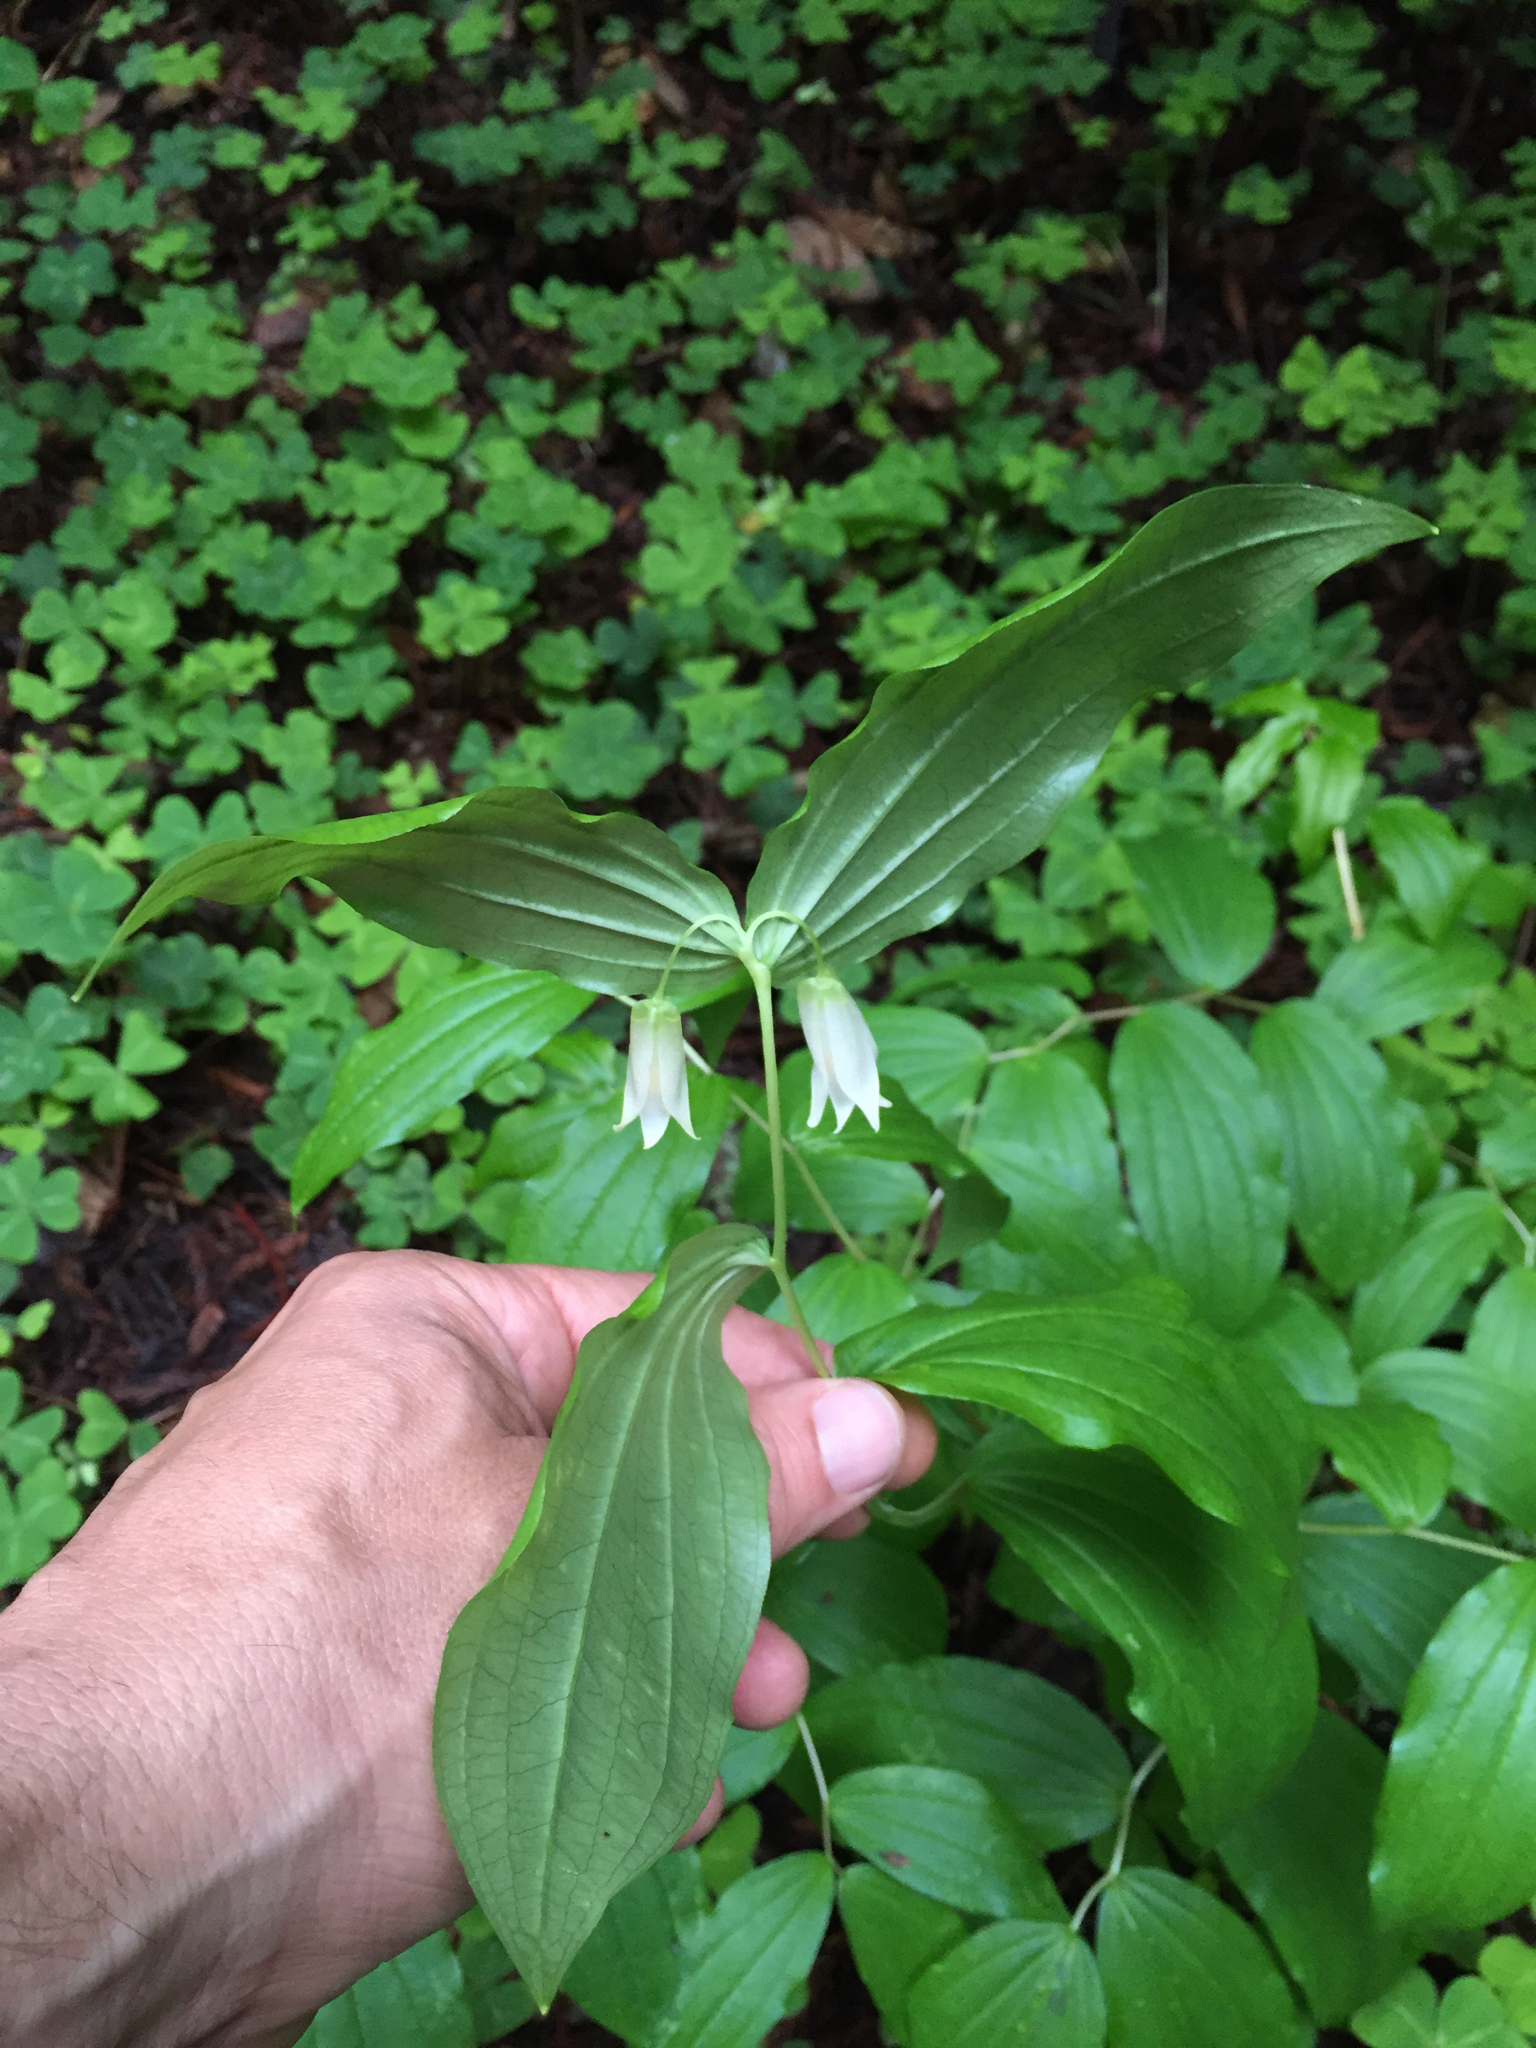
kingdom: Plantae
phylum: Tracheophyta
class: Liliopsida
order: Liliales
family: Liliaceae
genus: Prosartes
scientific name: Prosartes smithii
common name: Fairy-lantern
